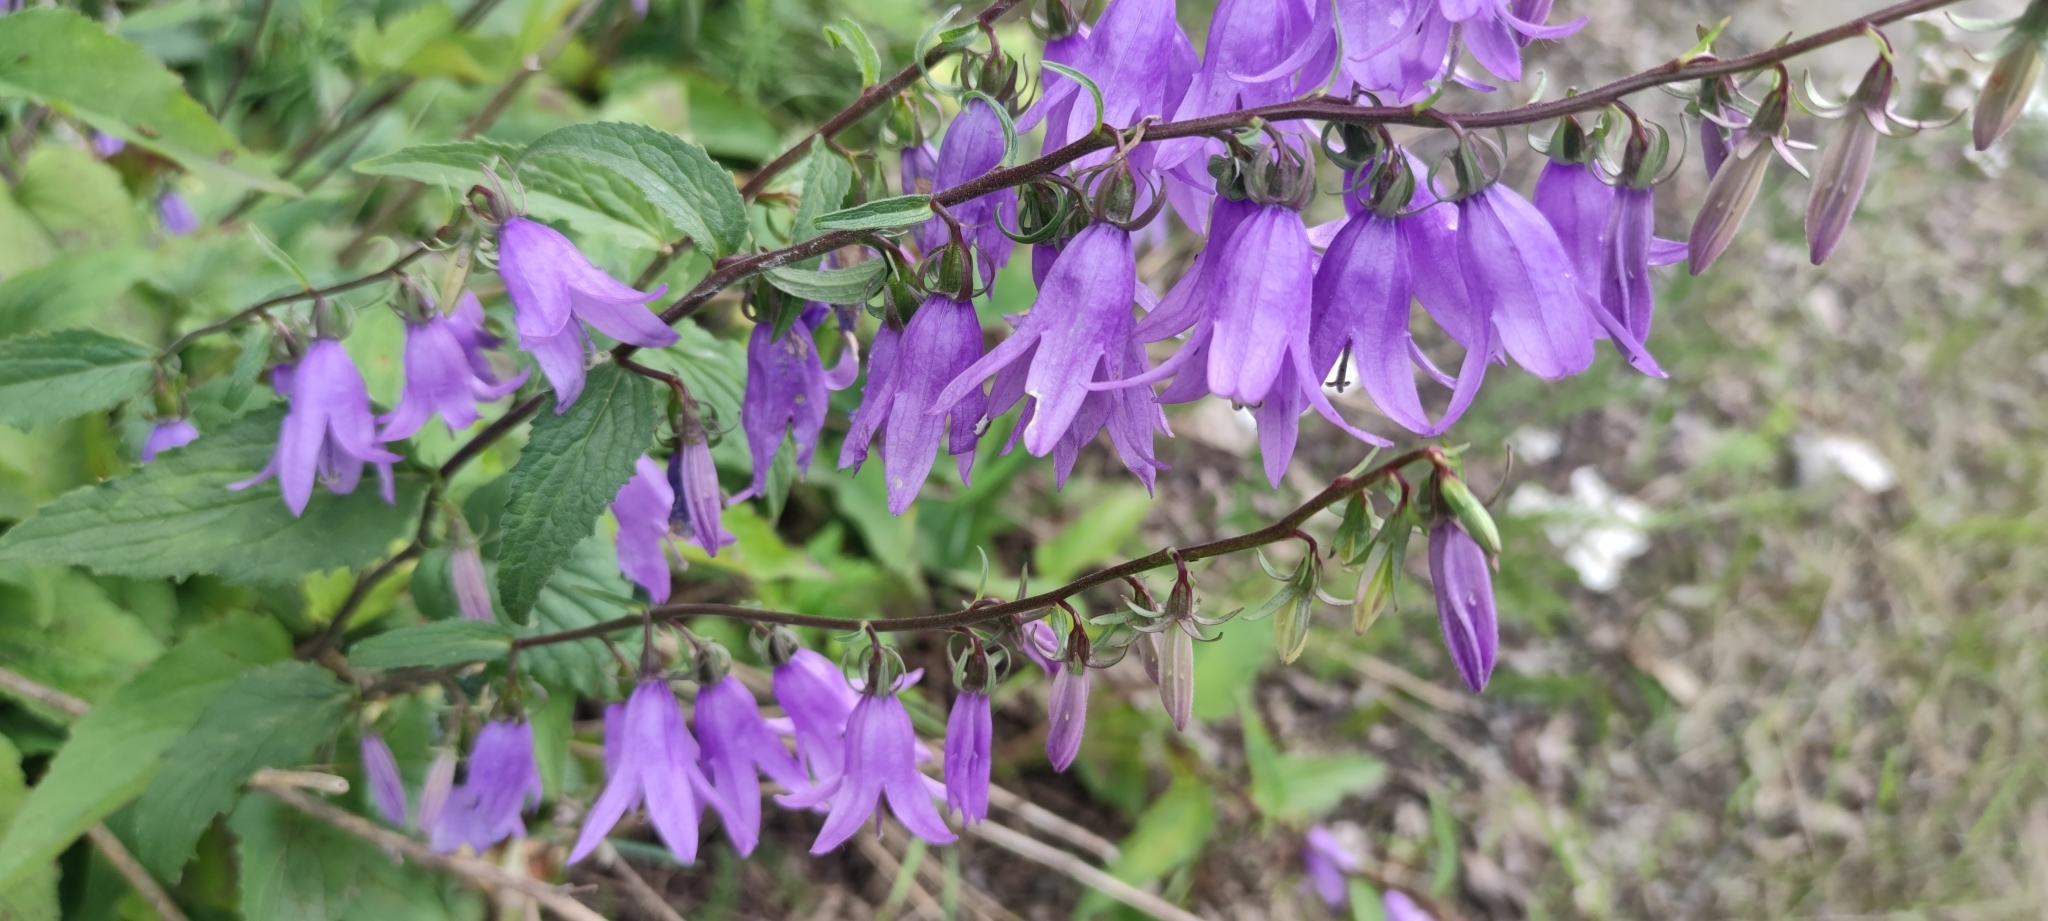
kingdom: Plantae
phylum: Tracheophyta
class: Magnoliopsida
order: Asterales
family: Campanulaceae
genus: Campanula
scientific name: Campanula rapunculoides
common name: Creeping bellflower
